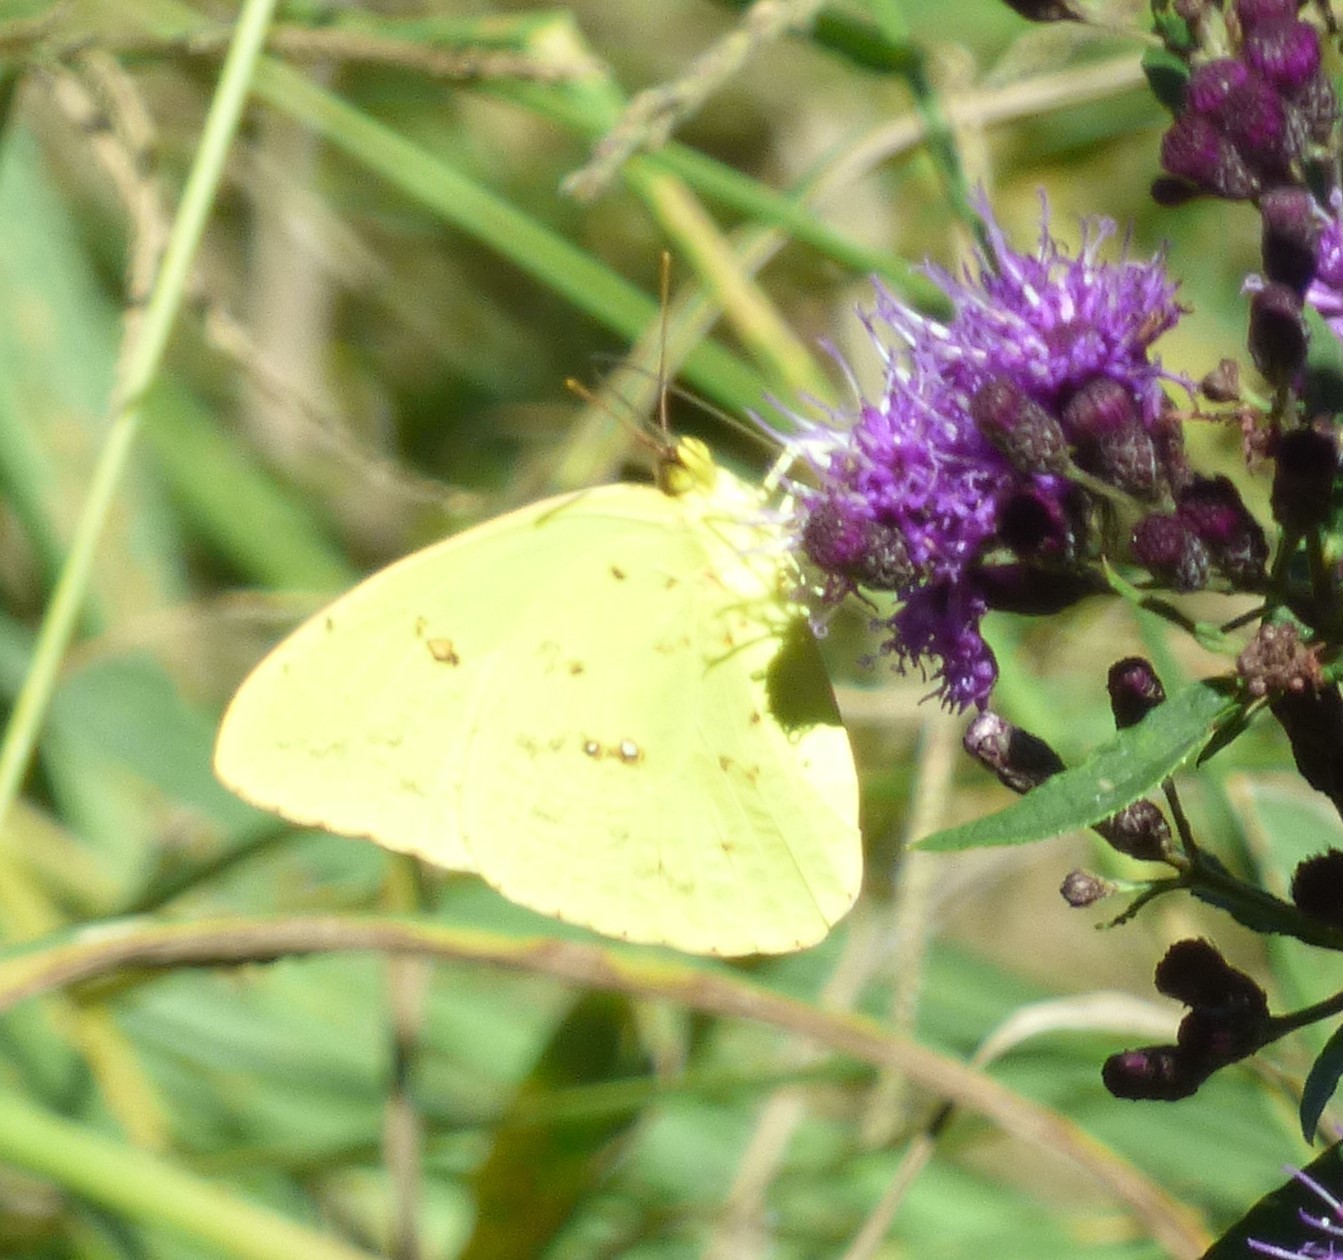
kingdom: Animalia
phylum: Arthropoda
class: Insecta
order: Lepidoptera
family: Pieridae
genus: Phoebis
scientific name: Phoebis sennae
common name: Cloudless sulphur
